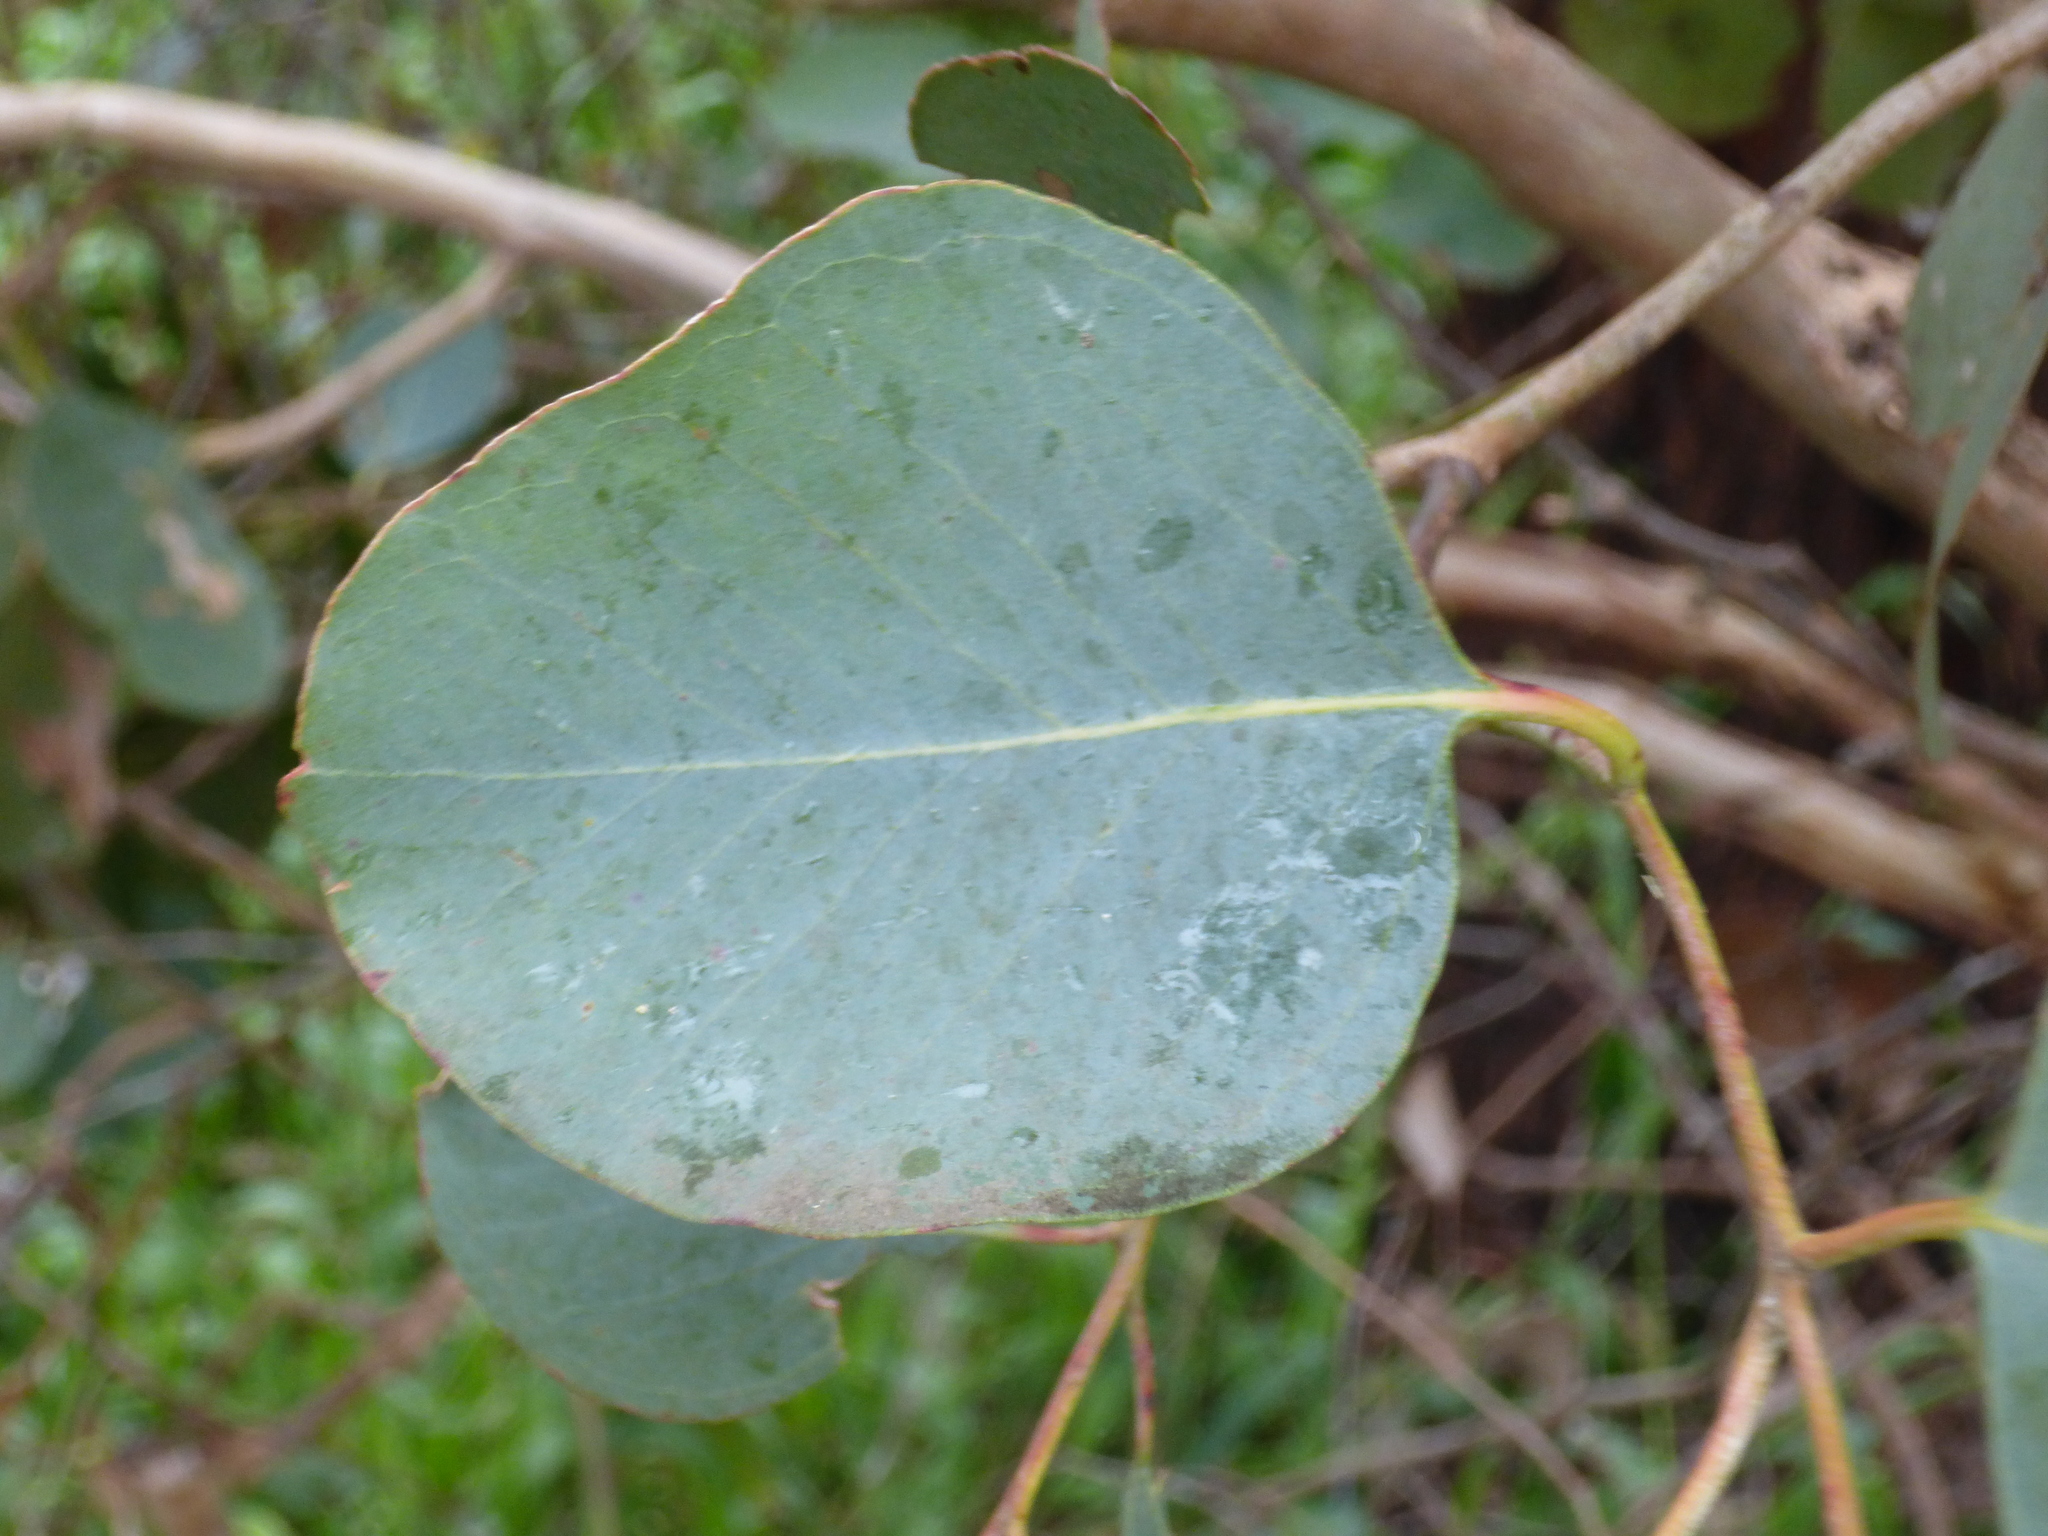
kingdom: Plantae
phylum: Tracheophyta
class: Magnoliopsida
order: Myrtales
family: Myrtaceae
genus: Eucalyptus
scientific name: Eucalyptus polyanthemos
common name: Red-box
